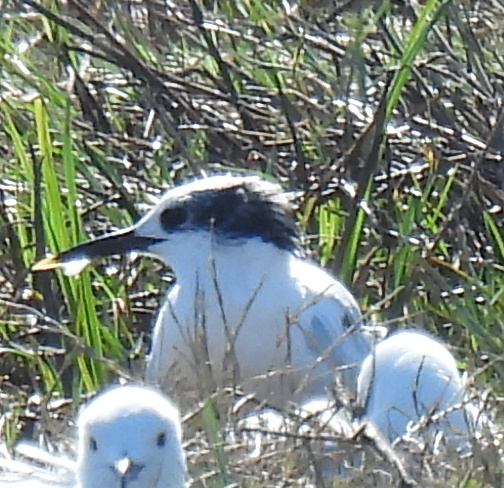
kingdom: Animalia
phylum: Chordata
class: Aves
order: Charadriiformes
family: Laridae
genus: Thalasseus
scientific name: Thalasseus sandvicensis
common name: Sandwich tern
